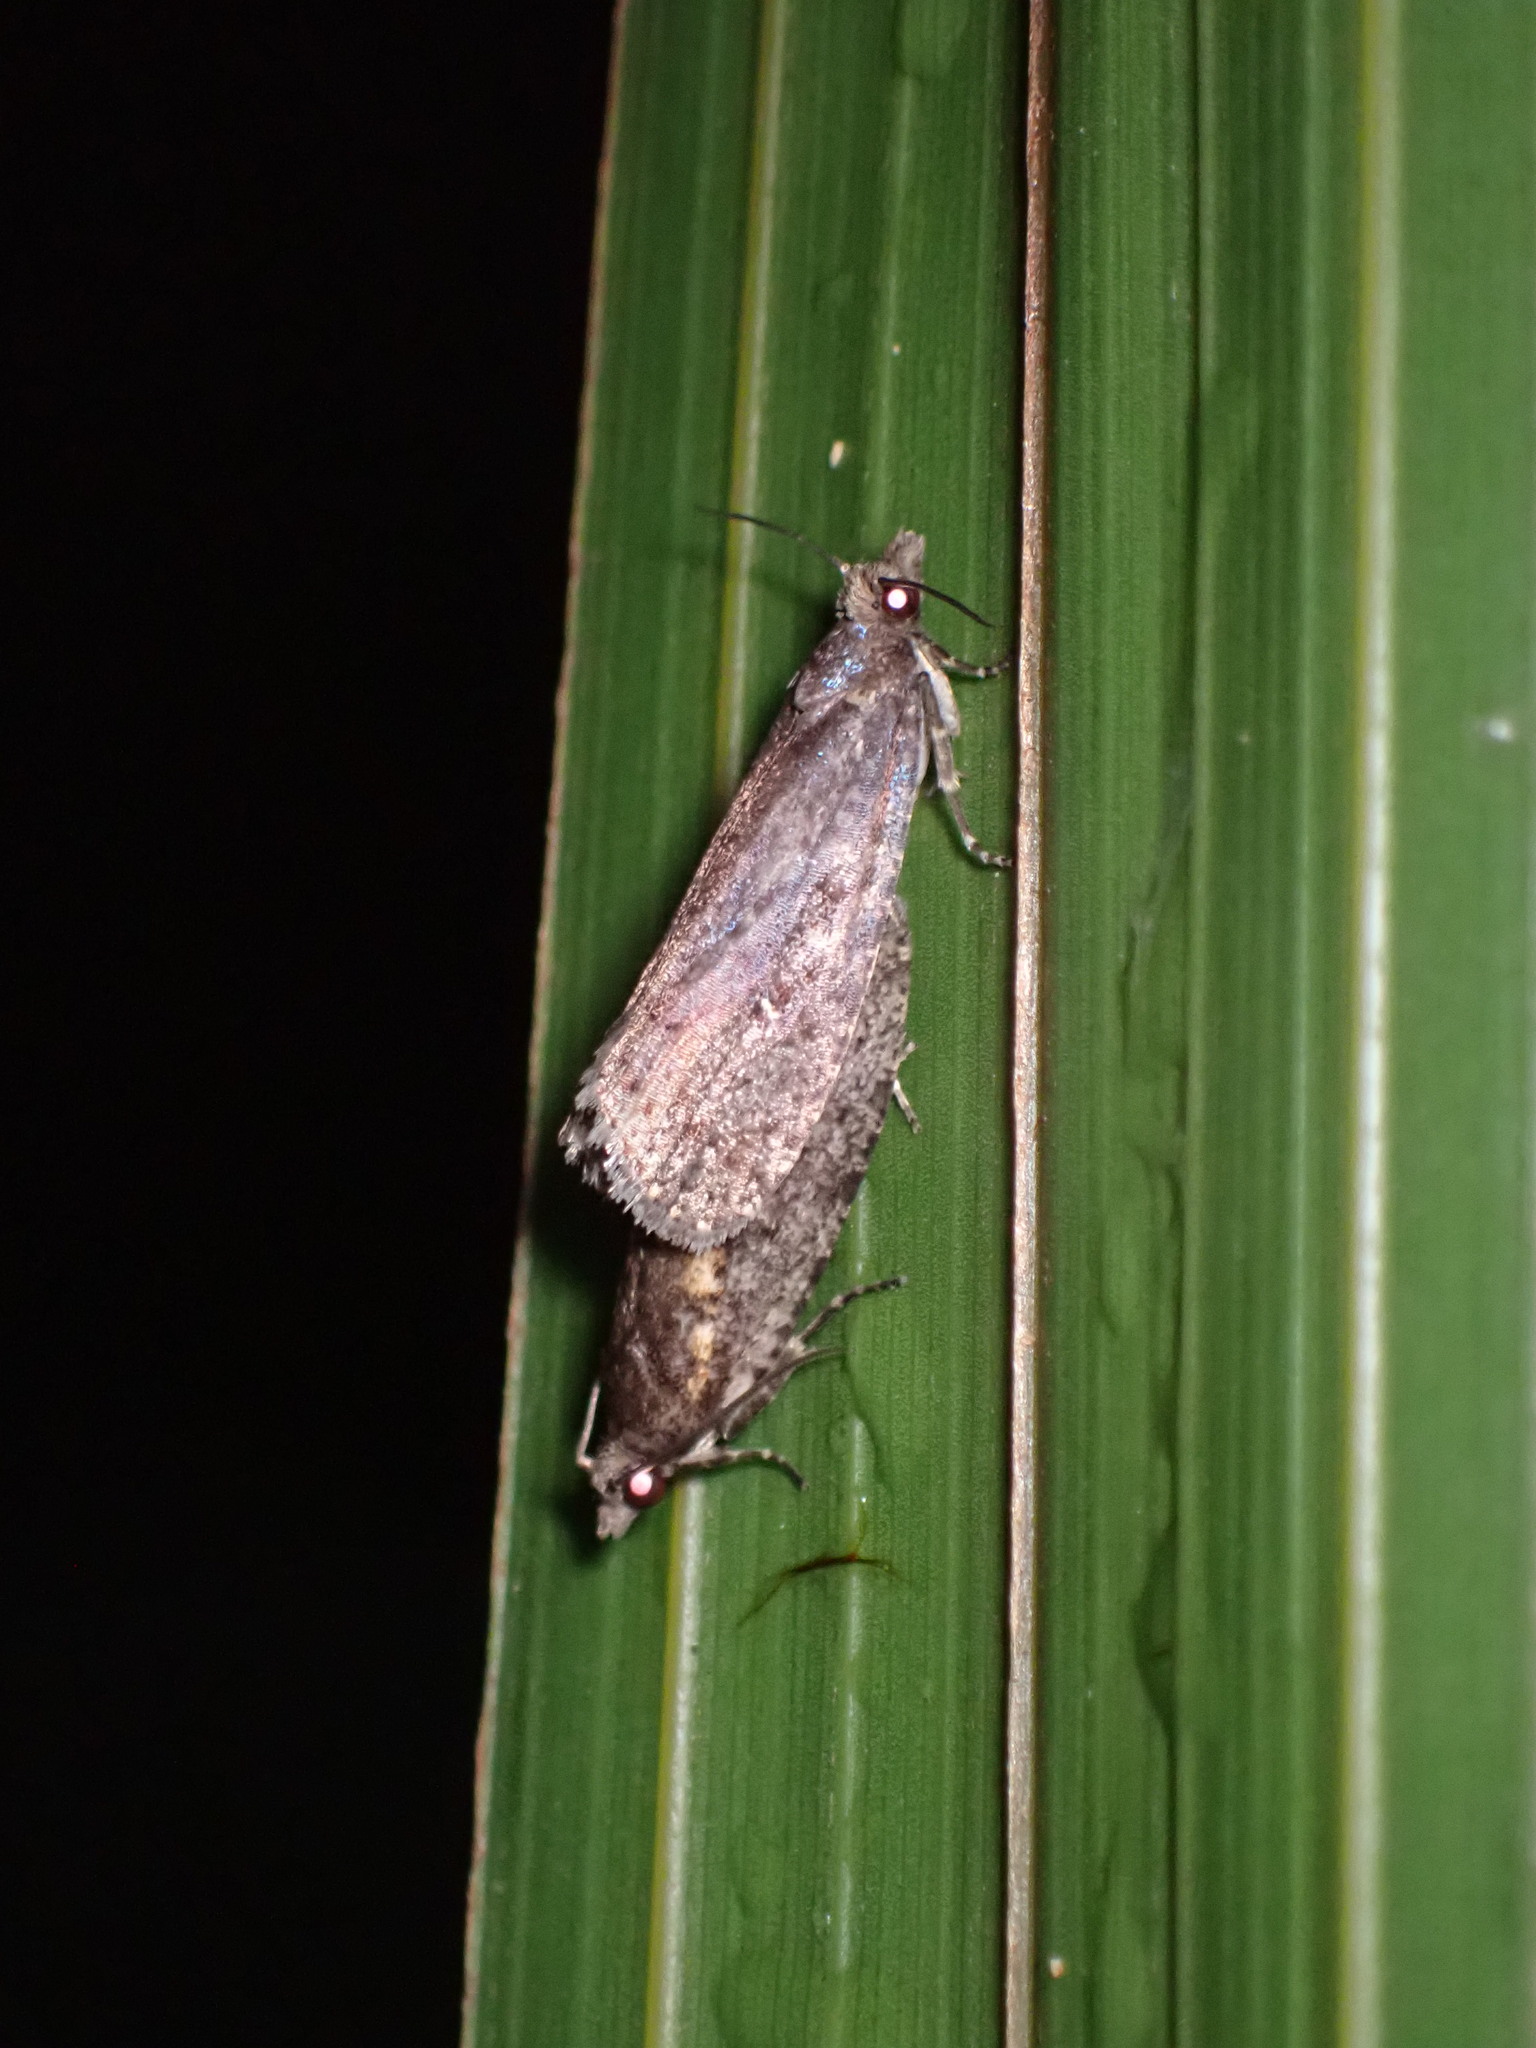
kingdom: Animalia
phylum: Arthropoda
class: Insecta
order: Lepidoptera
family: Tortricidae
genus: Cryptaspasma
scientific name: Cryptaspasma querula
